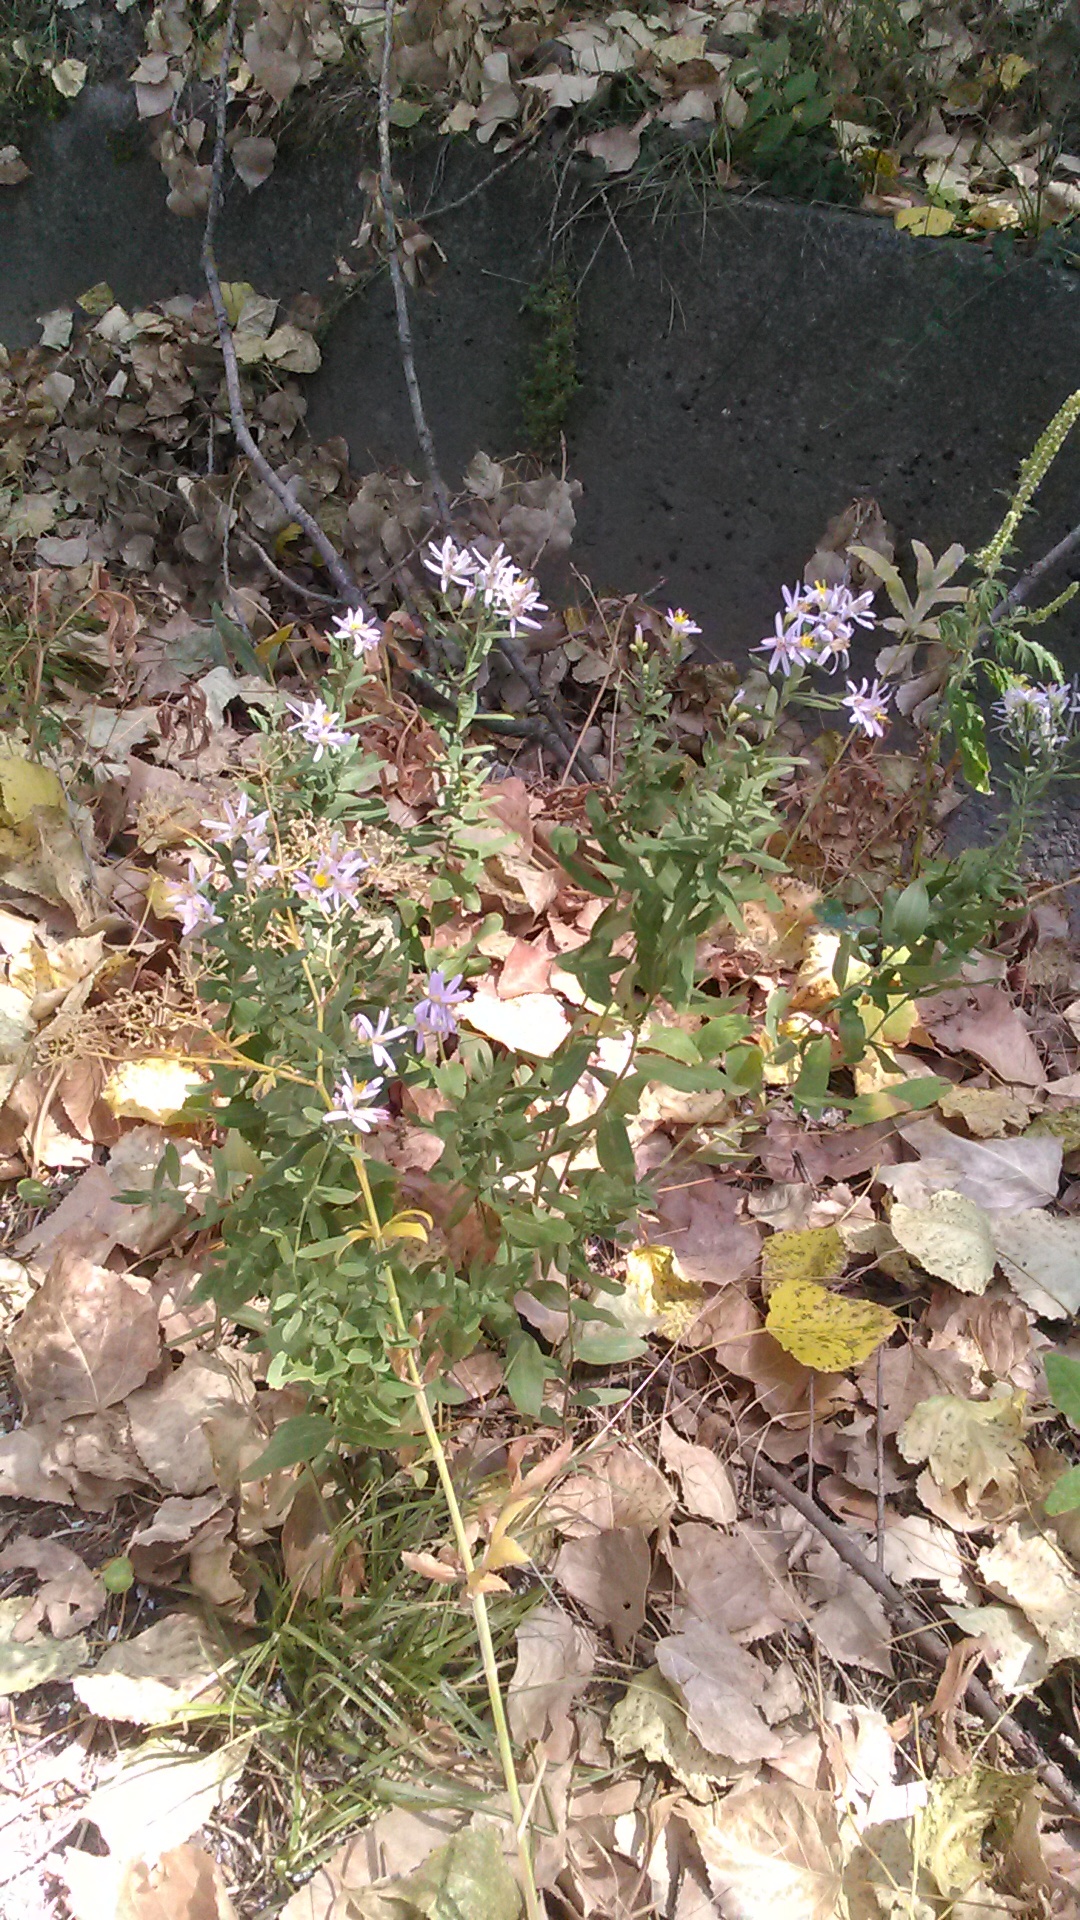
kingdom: Plantae
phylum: Tracheophyta
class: Magnoliopsida
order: Asterales
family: Asteraceae
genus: Galatella
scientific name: Galatella sedifolia
